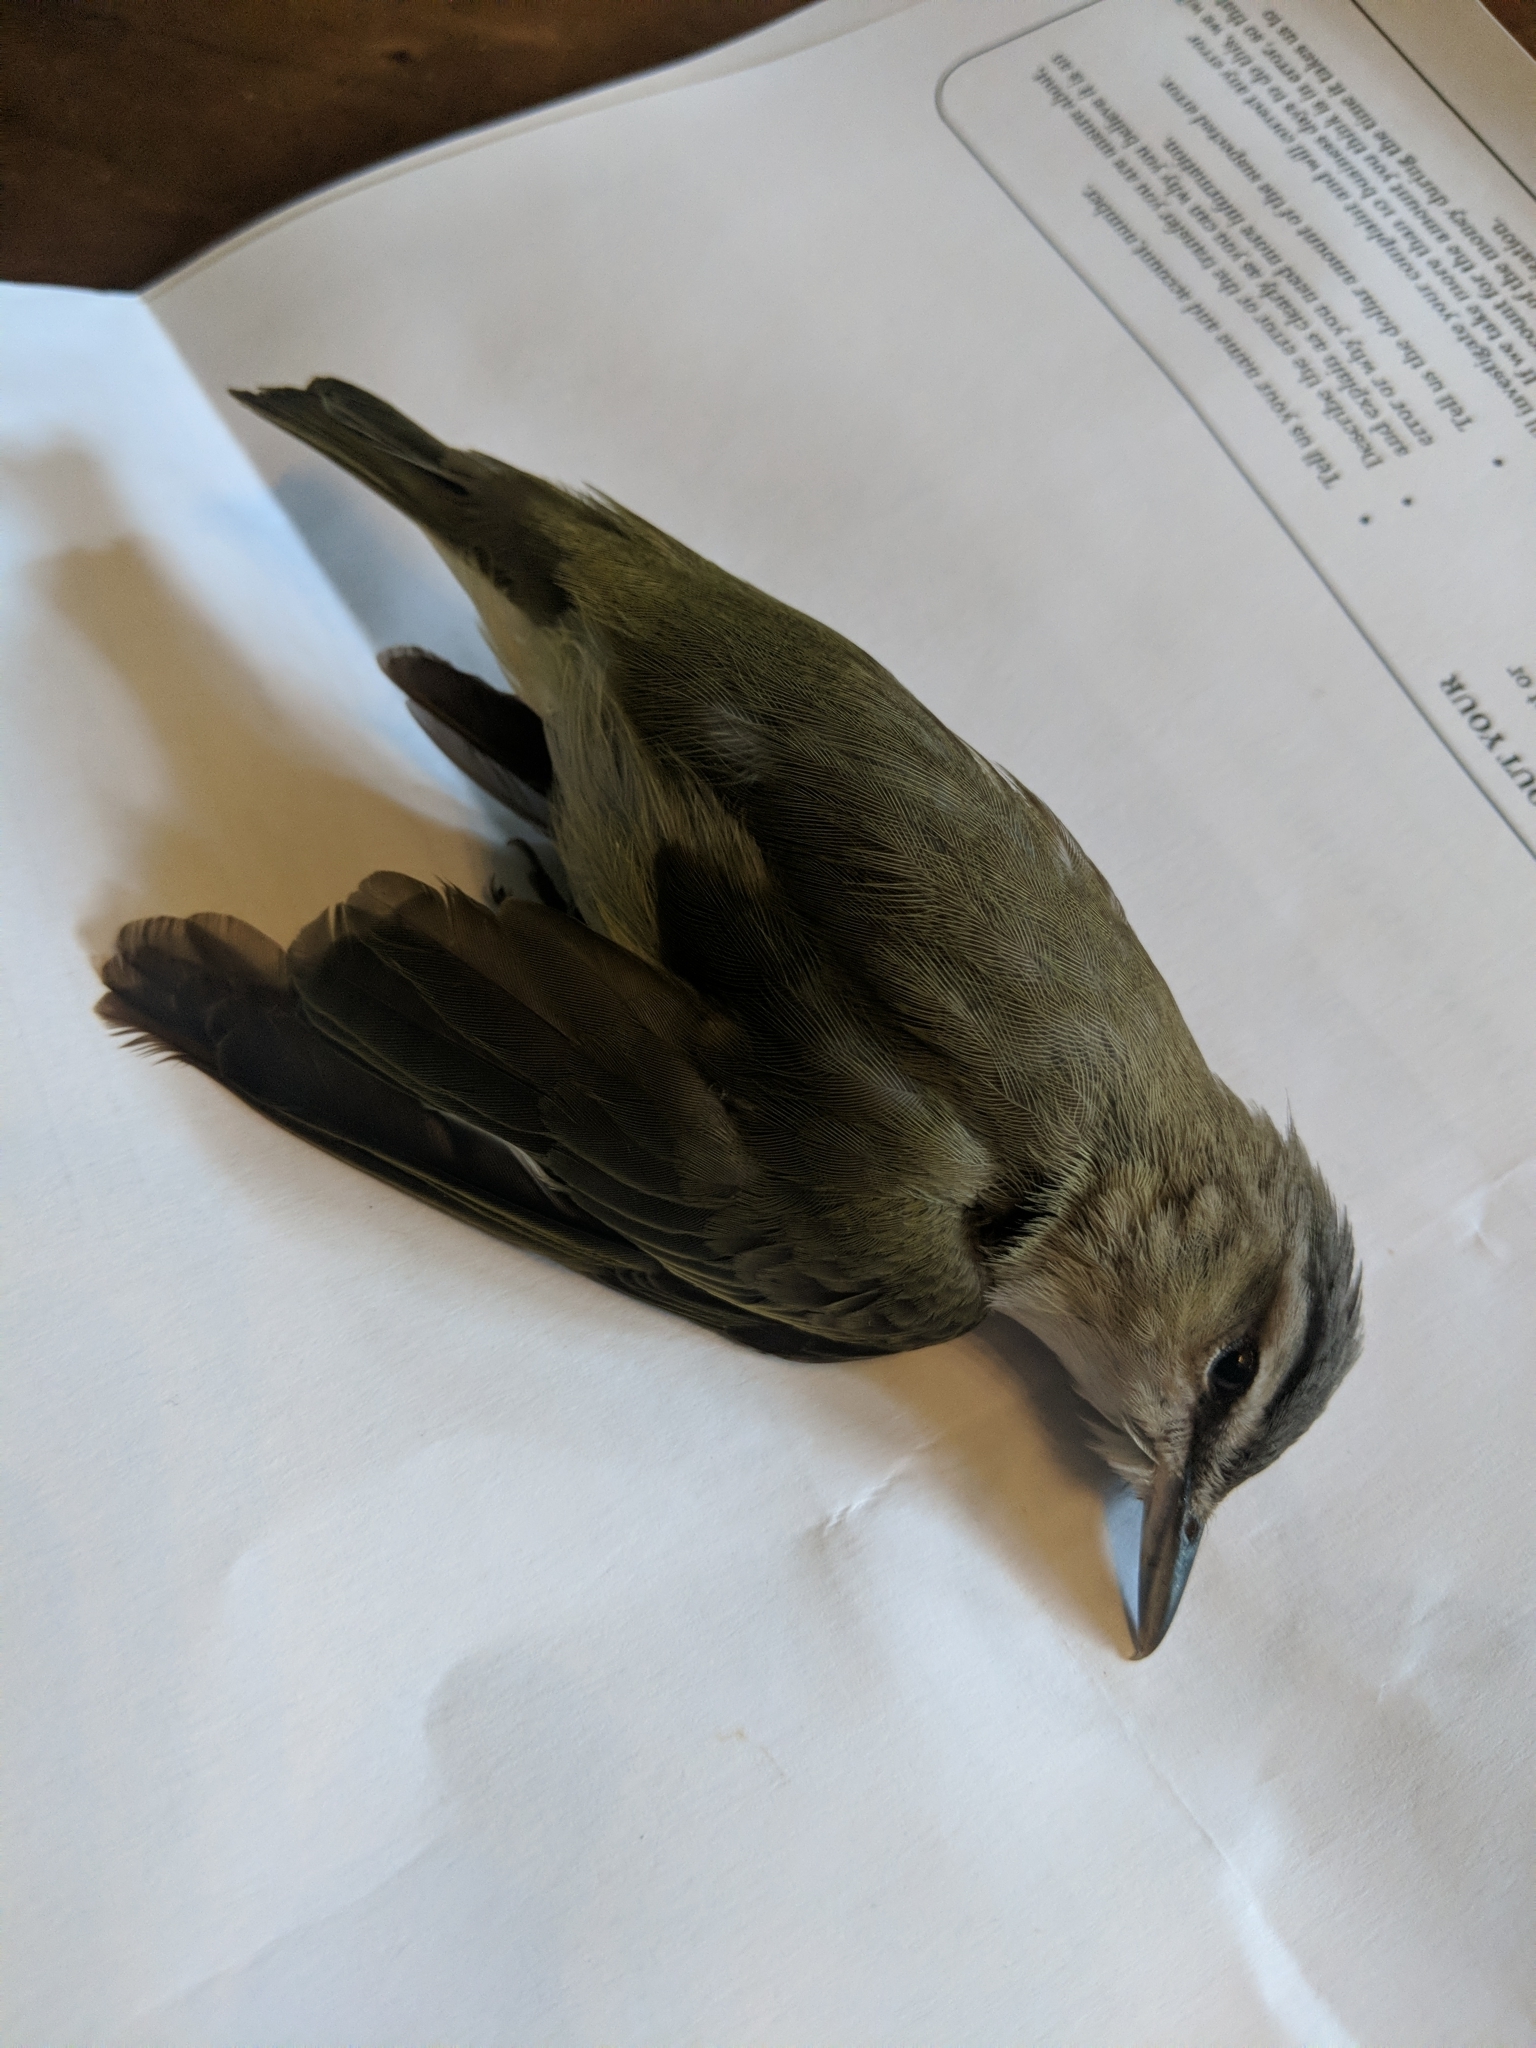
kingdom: Animalia
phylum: Chordata
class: Aves
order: Passeriformes
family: Vireonidae
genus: Vireo
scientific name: Vireo olivaceus
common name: Red-eyed vireo
